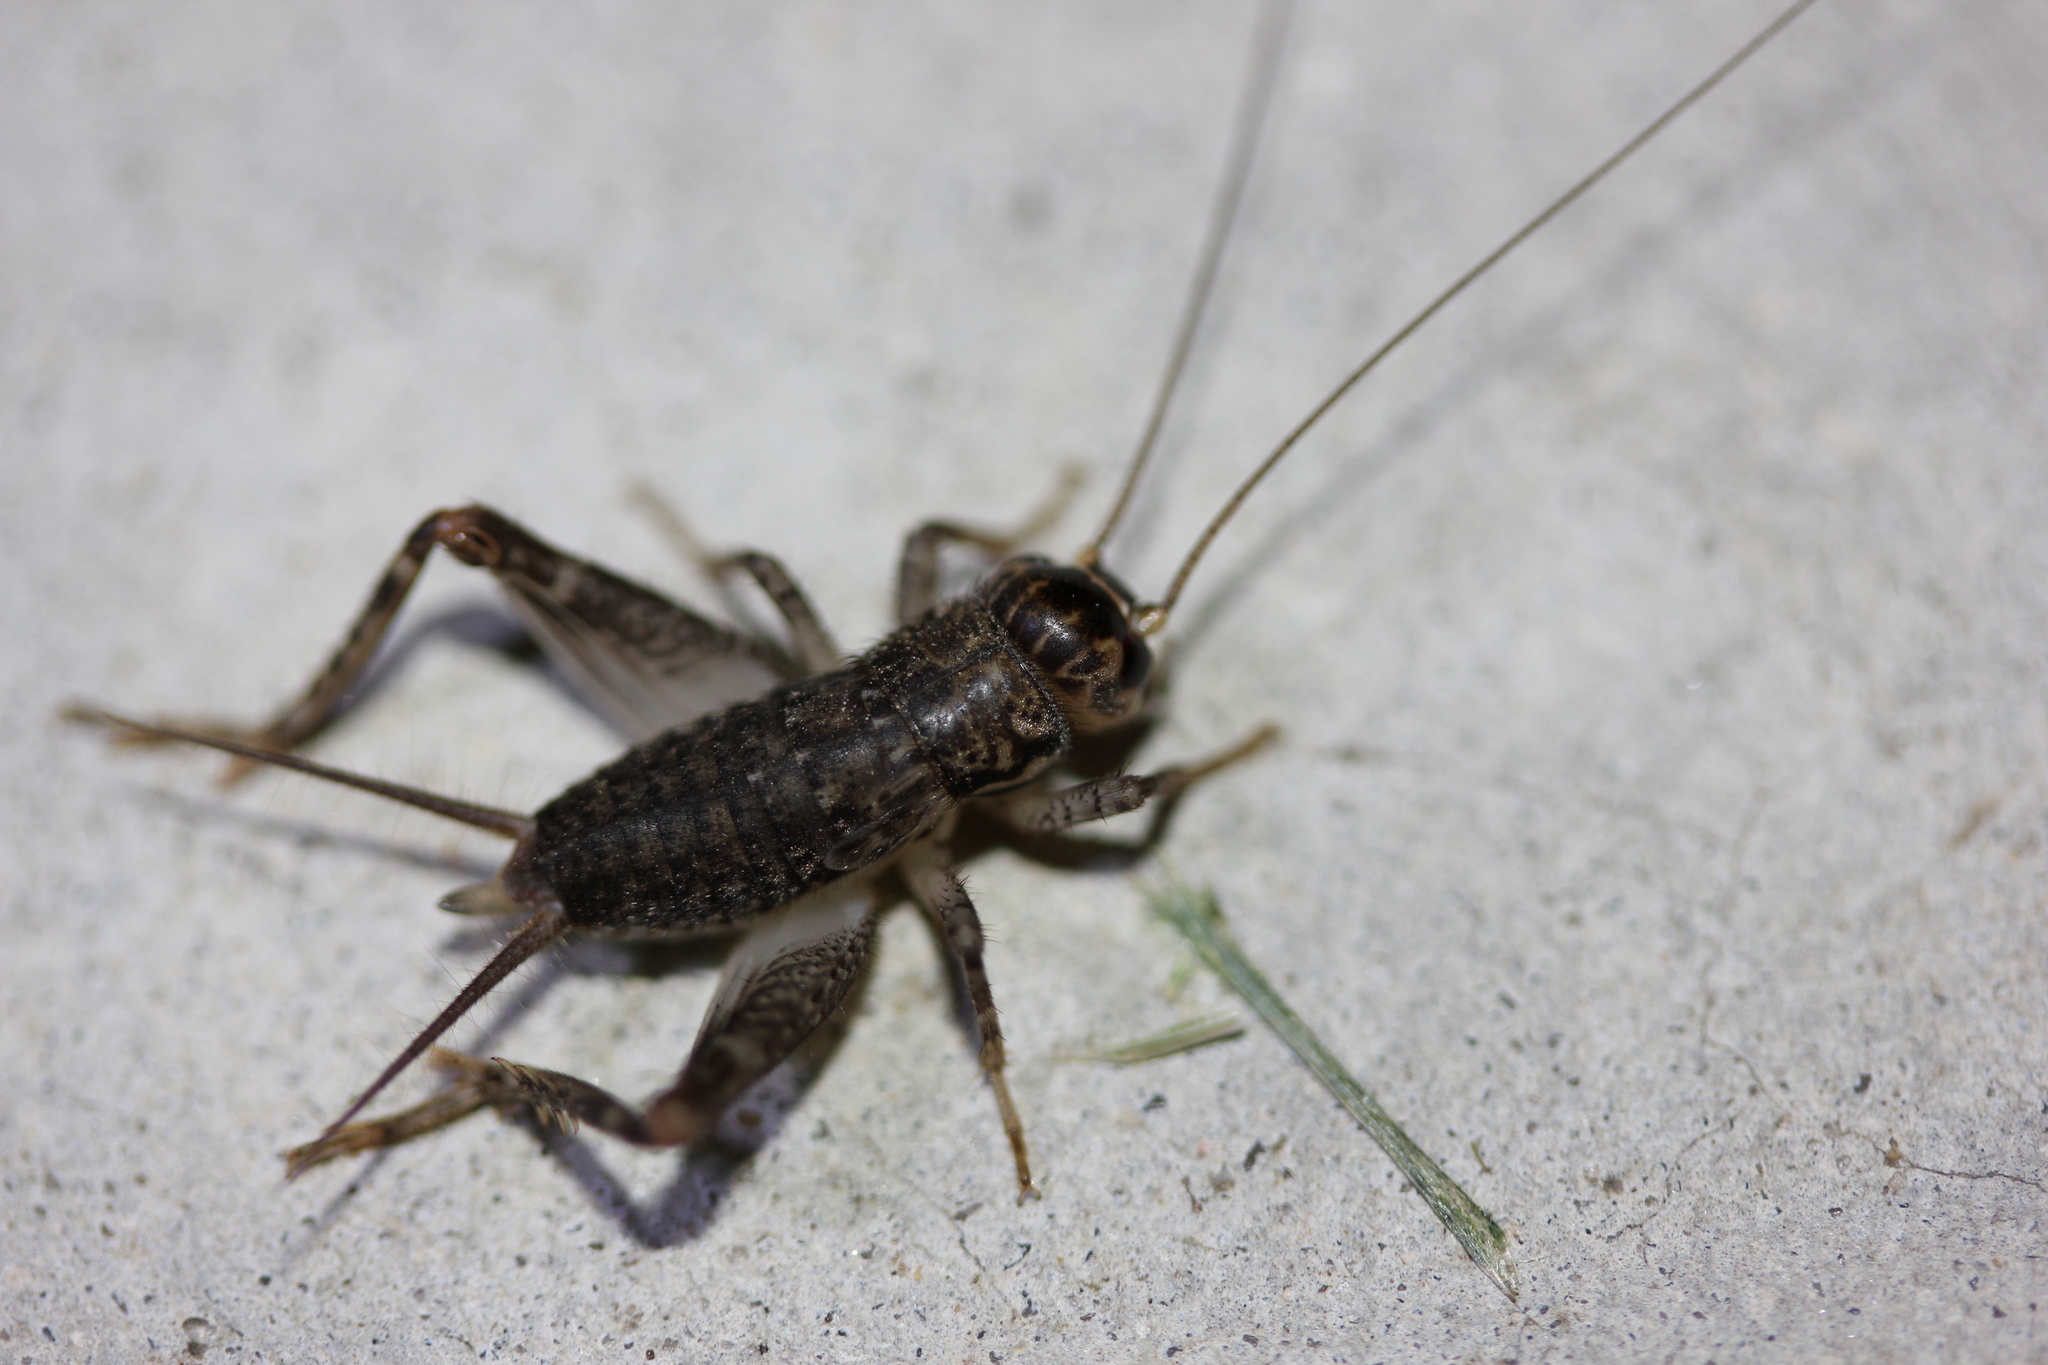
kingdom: Animalia
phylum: Arthropoda
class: Insecta
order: Orthoptera
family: Gryllidae
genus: Velarifictorus
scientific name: Velarifictorus micado
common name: Japanese burrowing cricket
